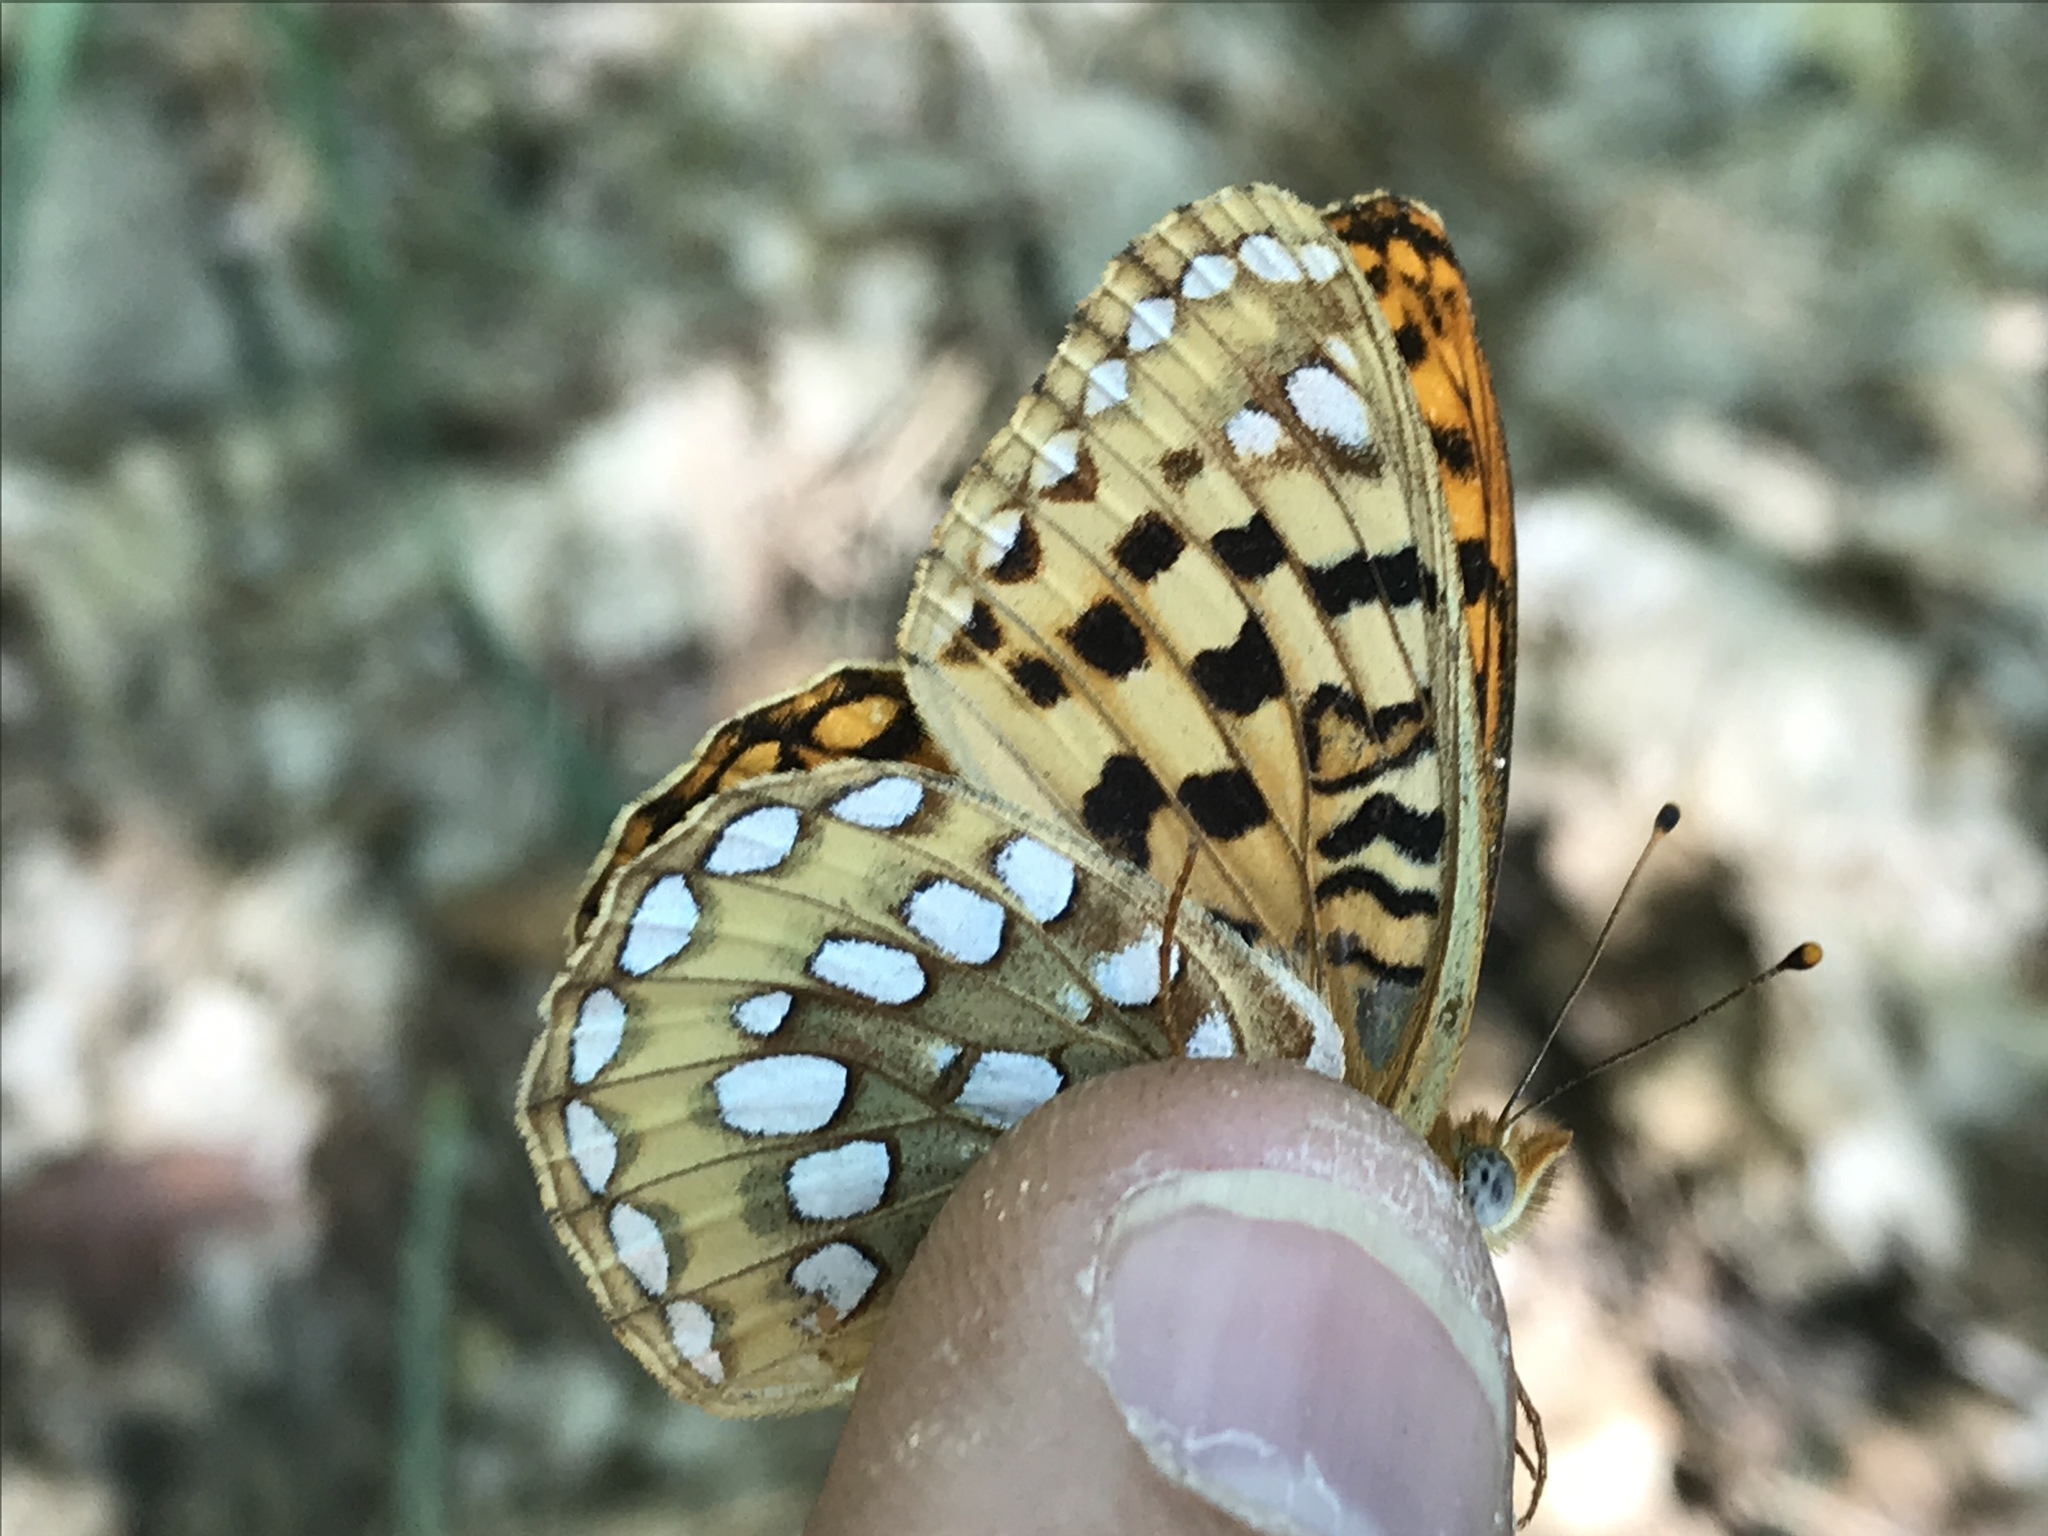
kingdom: Animalia
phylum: Arthropoda
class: Insecta
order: Lepidoptera
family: Nymphalidae
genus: Argynnis
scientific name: Argynnis coronis
